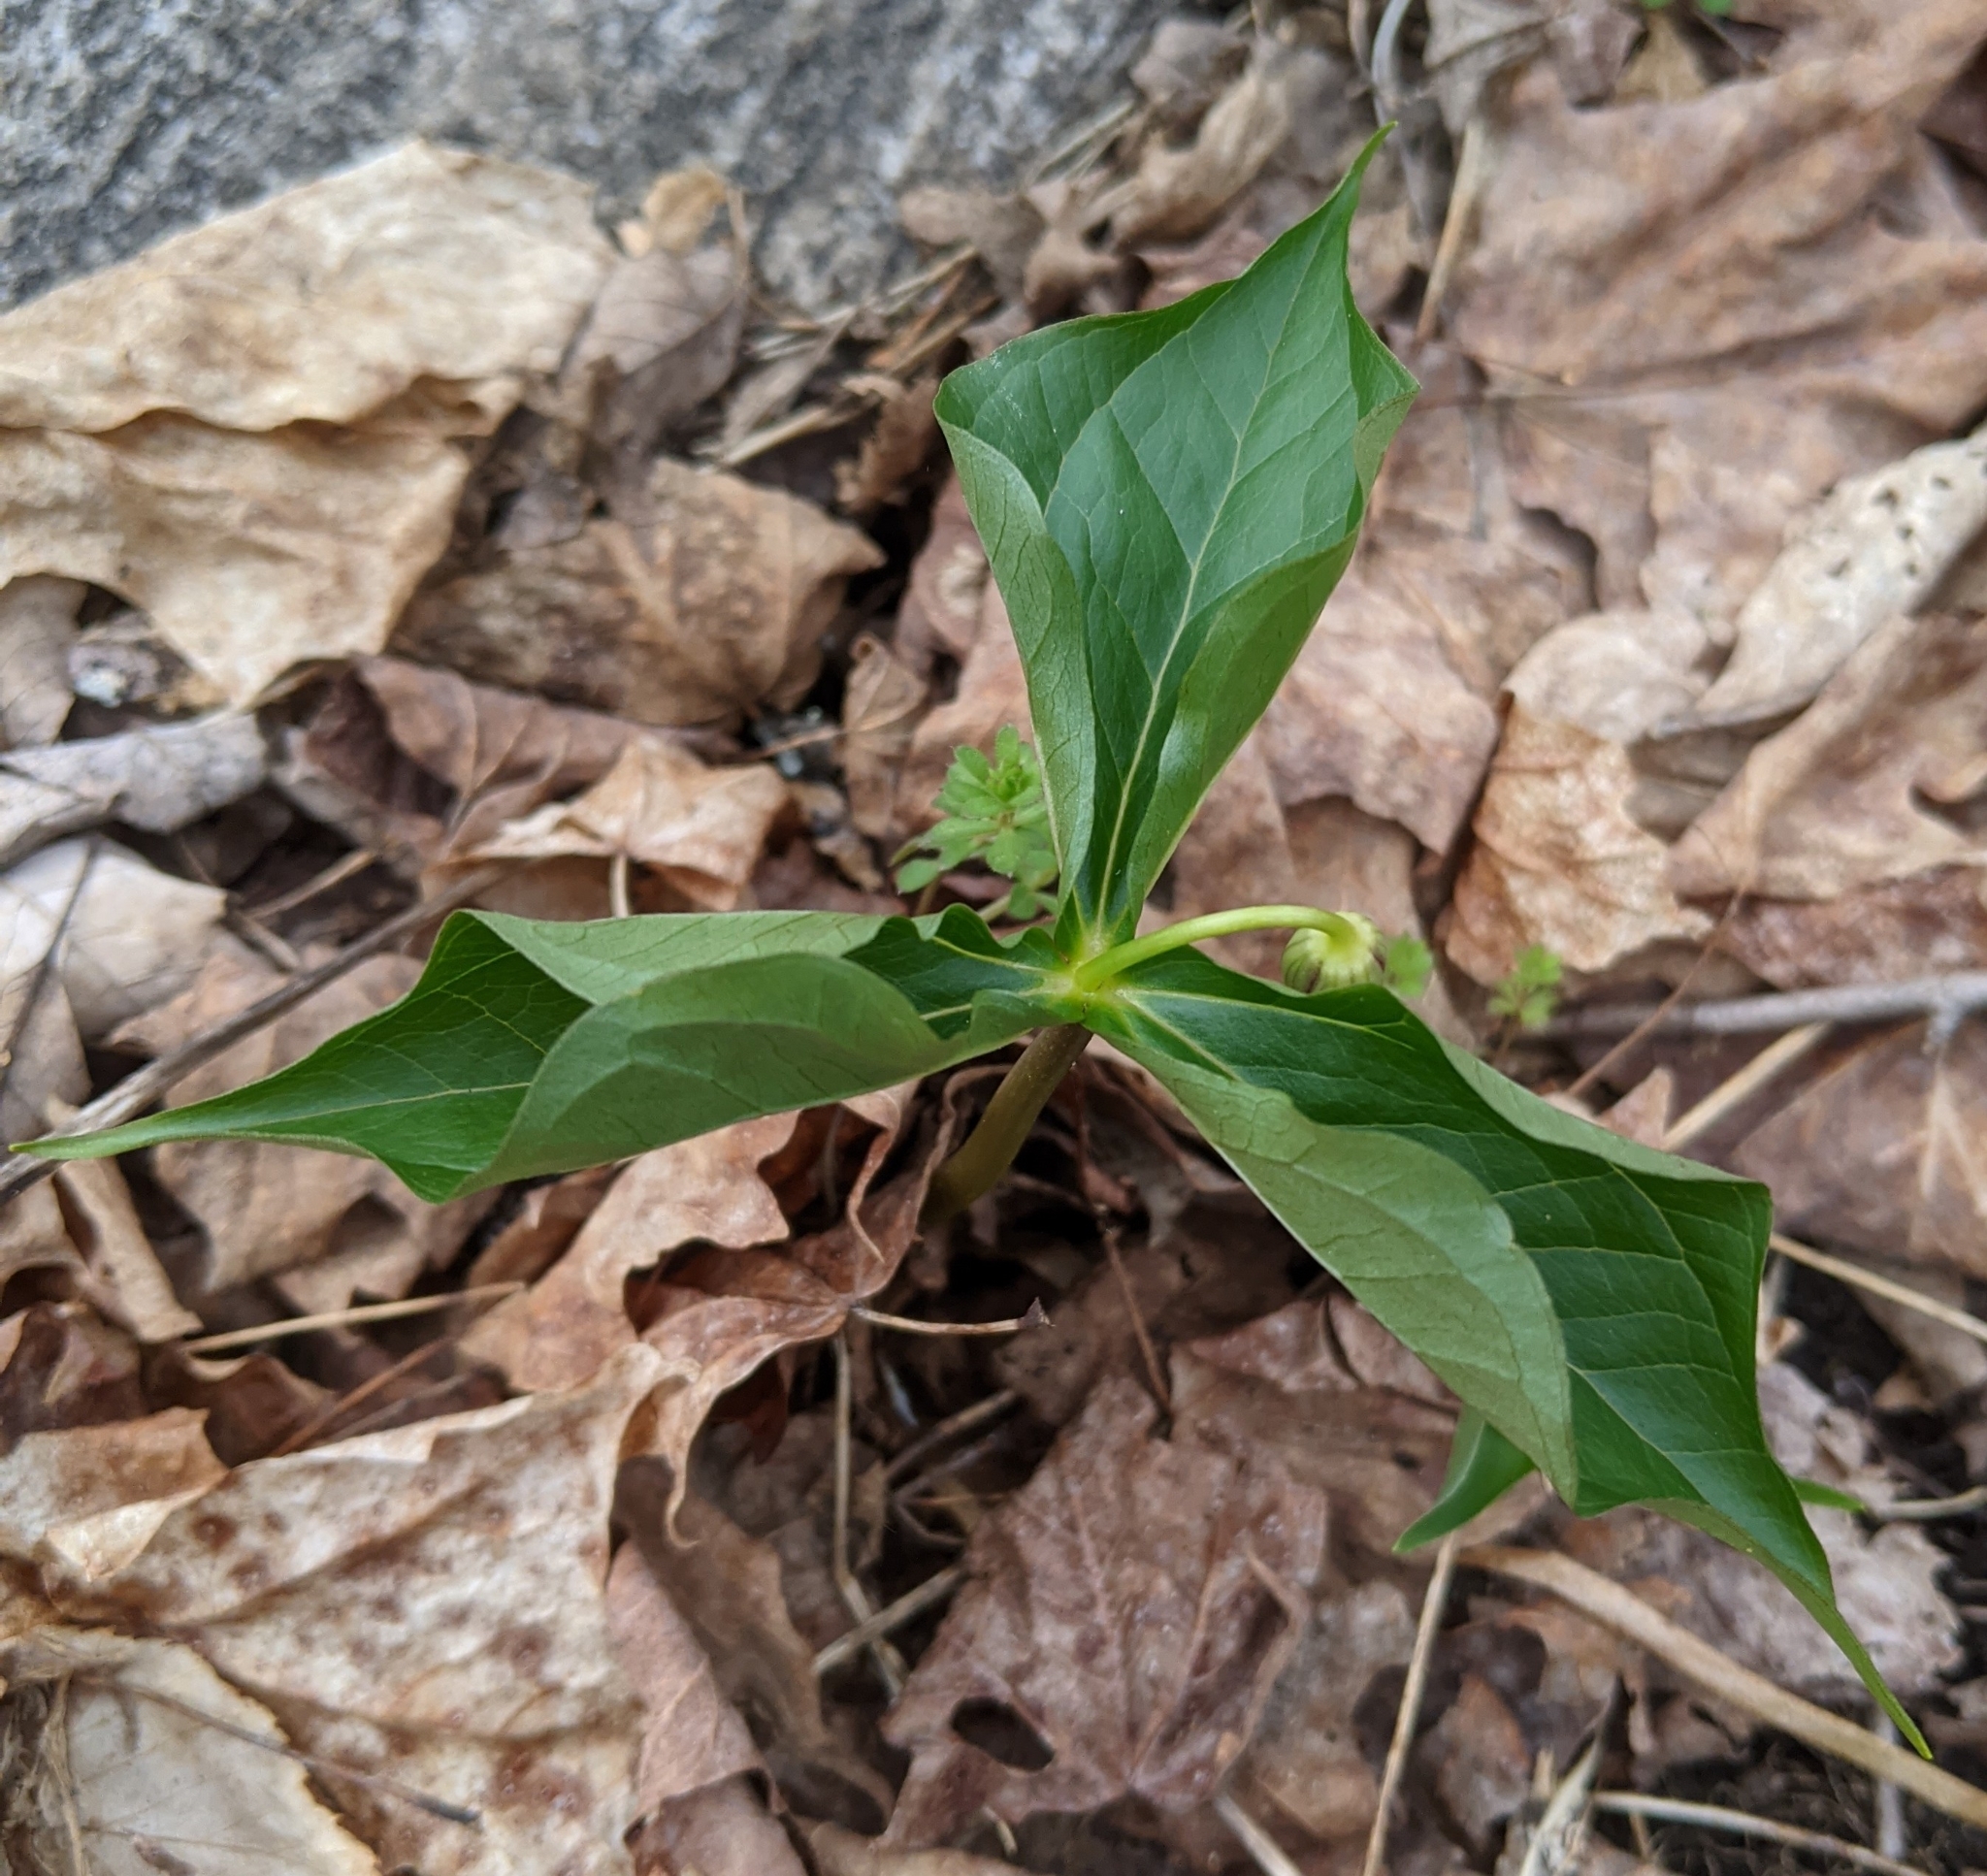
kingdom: Plantae
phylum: Tracheophyta
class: Liliopsida
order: Liliales
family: Melanthiaceae
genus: Trillium
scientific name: Trillium erectum
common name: Purple trillium
